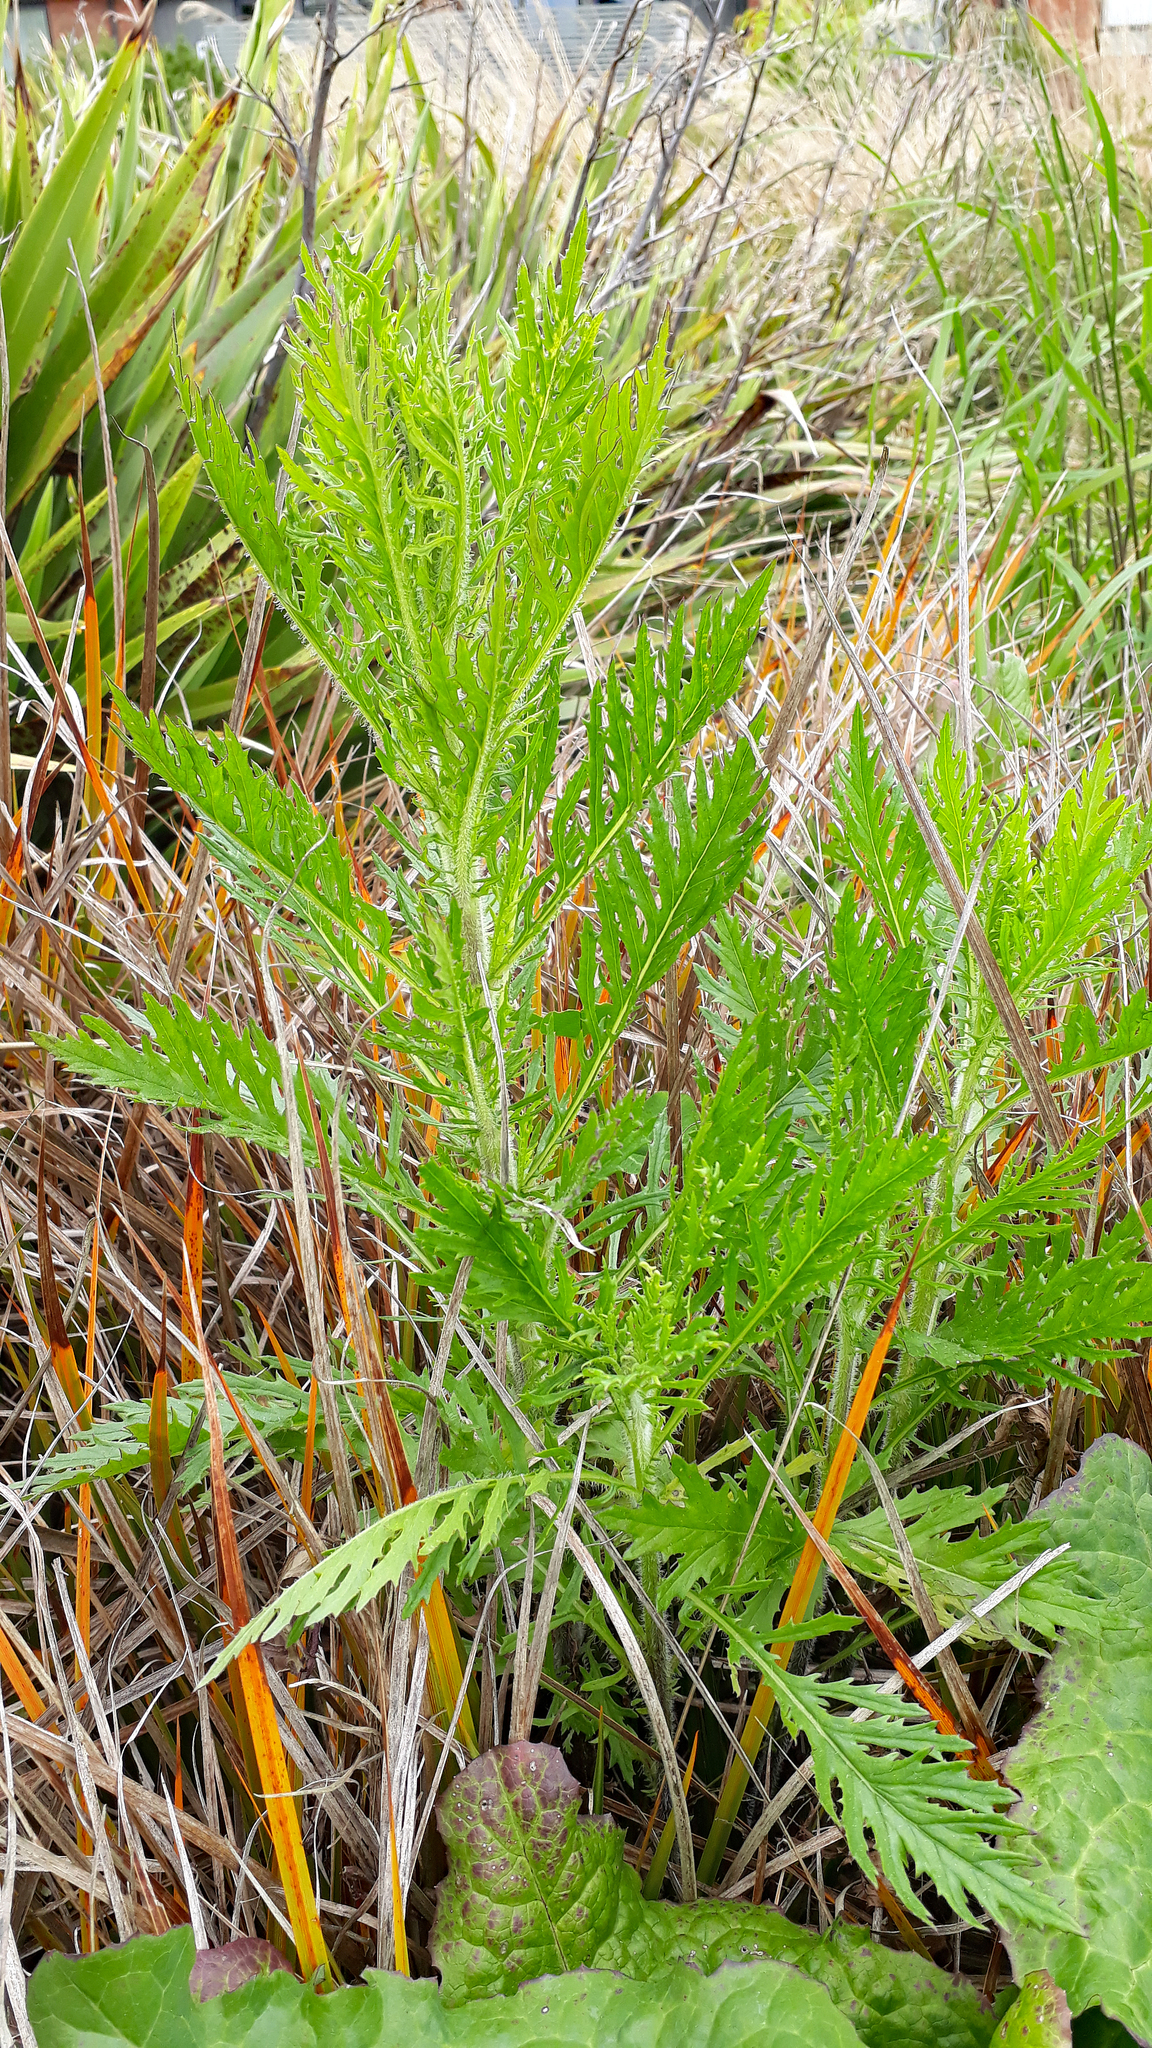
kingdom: Plantae
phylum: Tracheophyta
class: Magnoliopsida
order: Asterales
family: Asteraceae
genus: Senecio
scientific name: Senecio esleri
